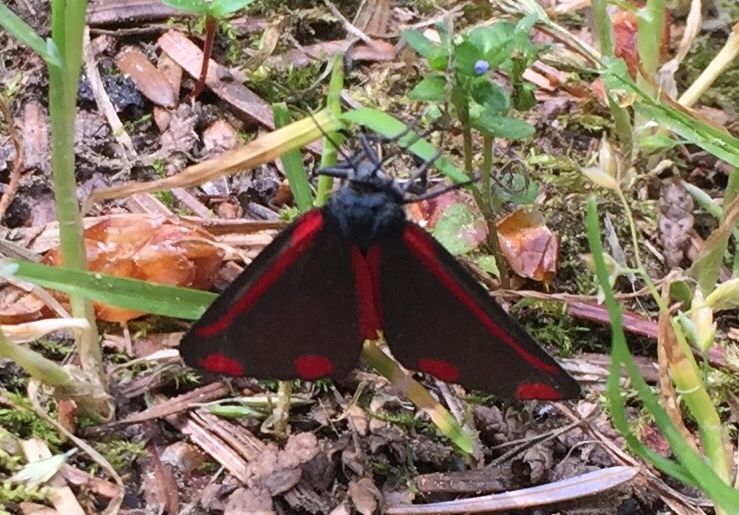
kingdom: Animalia
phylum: Arthropoda
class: Insecta
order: Lepidoptera
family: Erebidae
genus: Tyria
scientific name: Tyria jacobaeae
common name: Cinnabar
